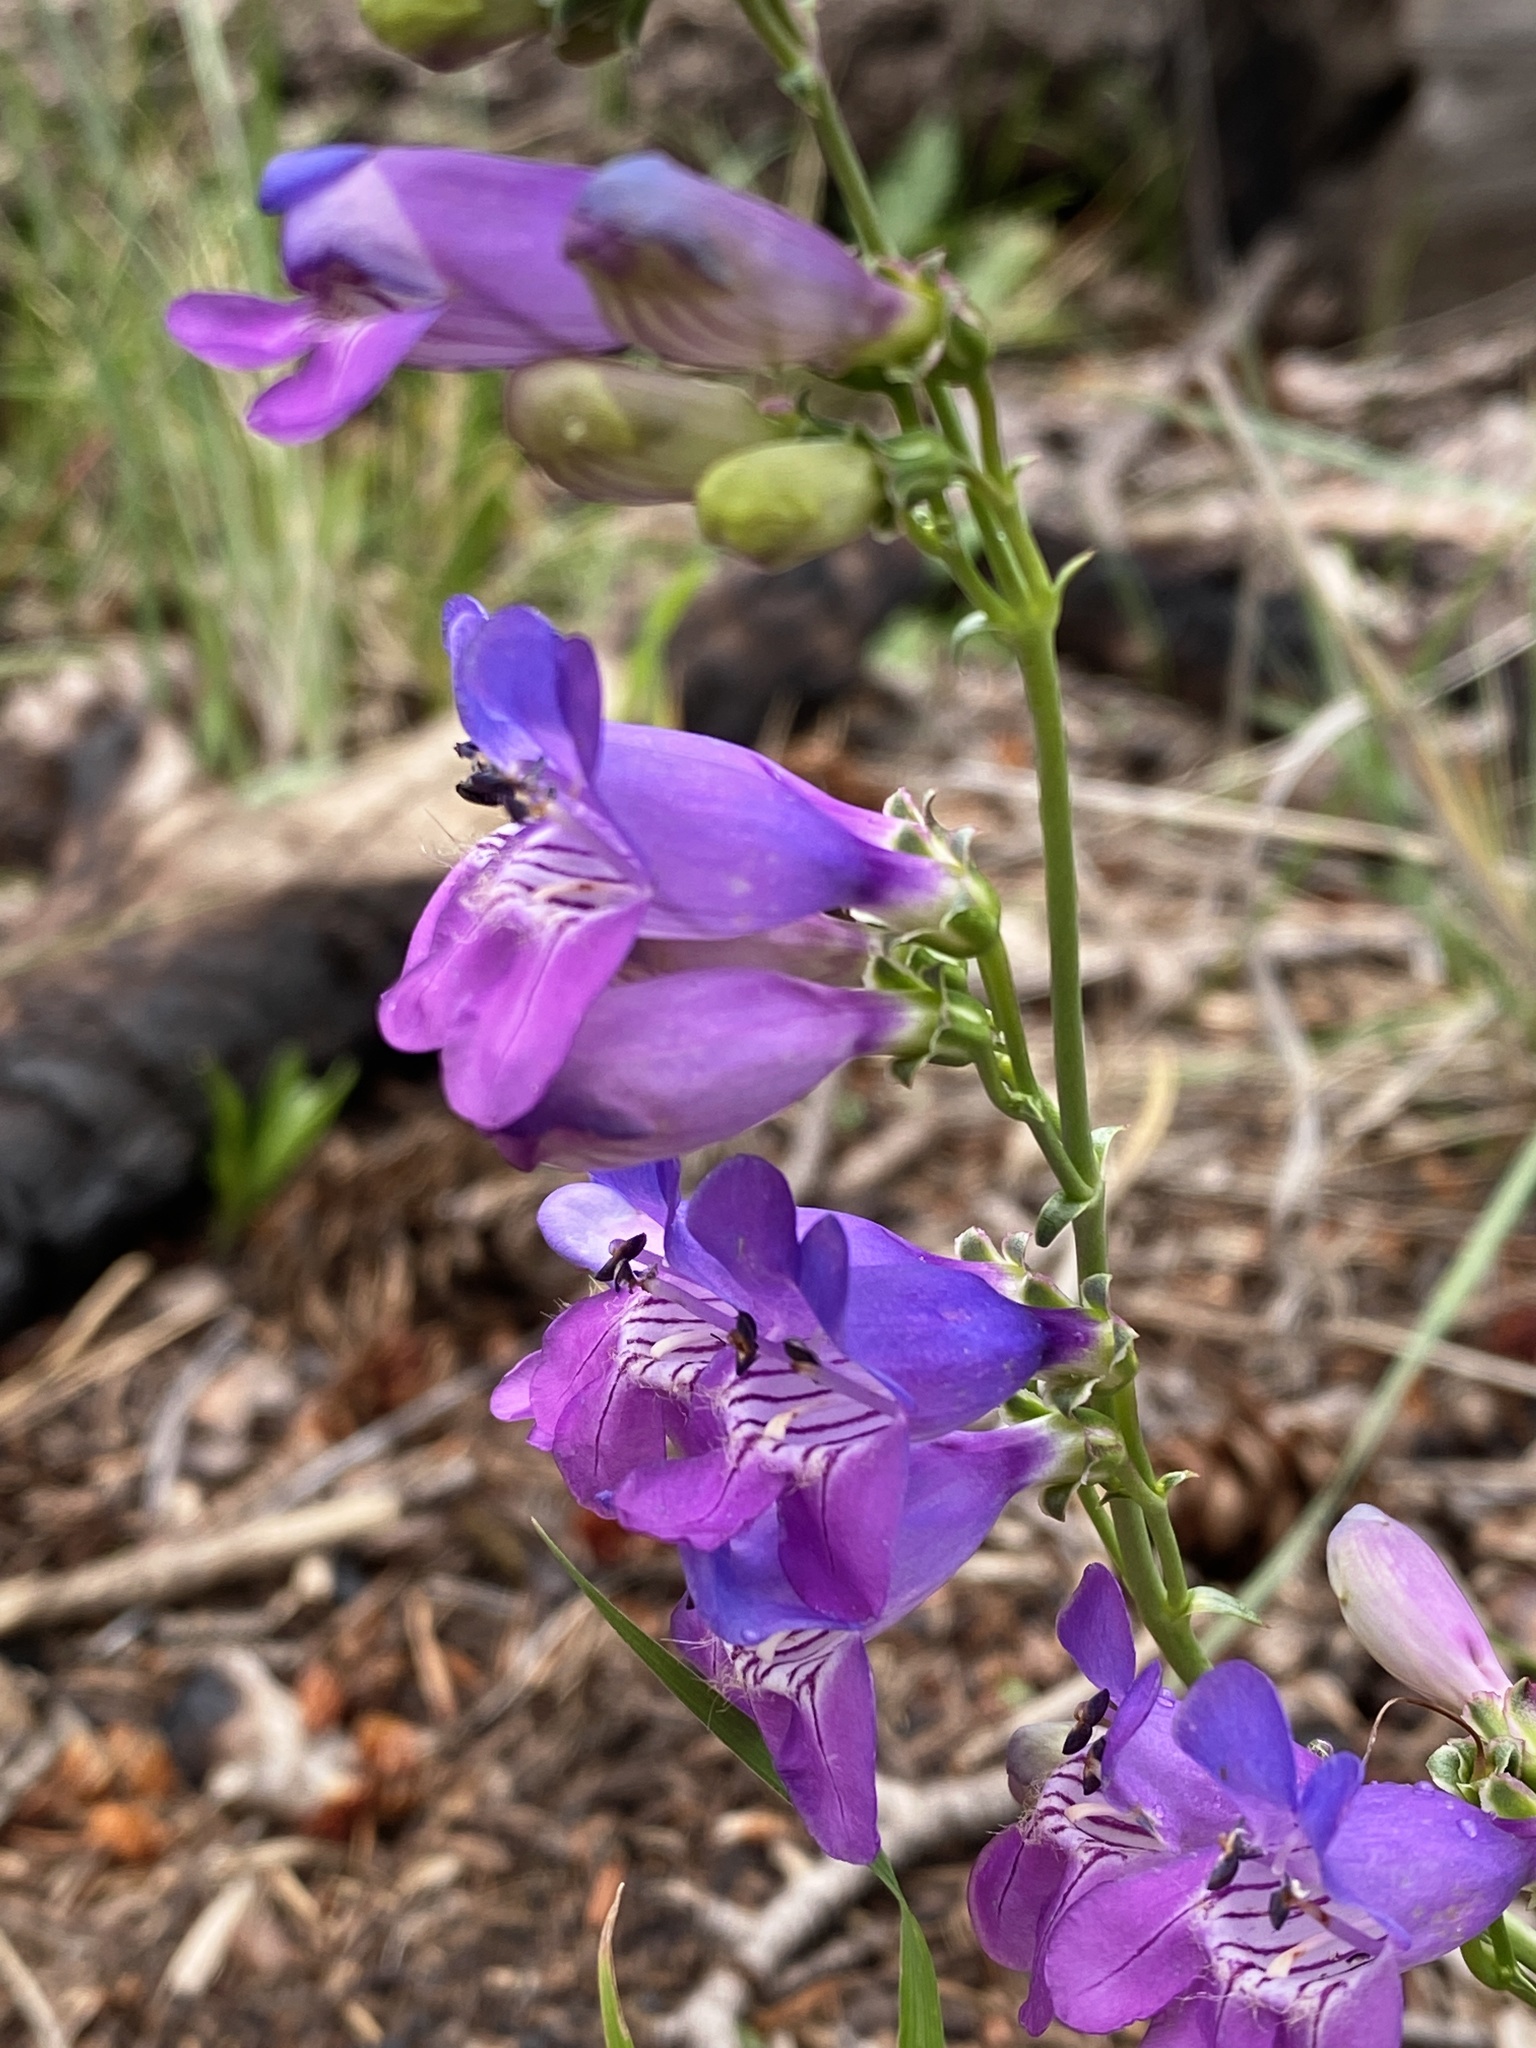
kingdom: Plantae
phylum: Tracheophyta
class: Magnoliopsida
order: Lamiales
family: Plantaginaceae
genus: Penstemon
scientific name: Penstemon neomexicanus
